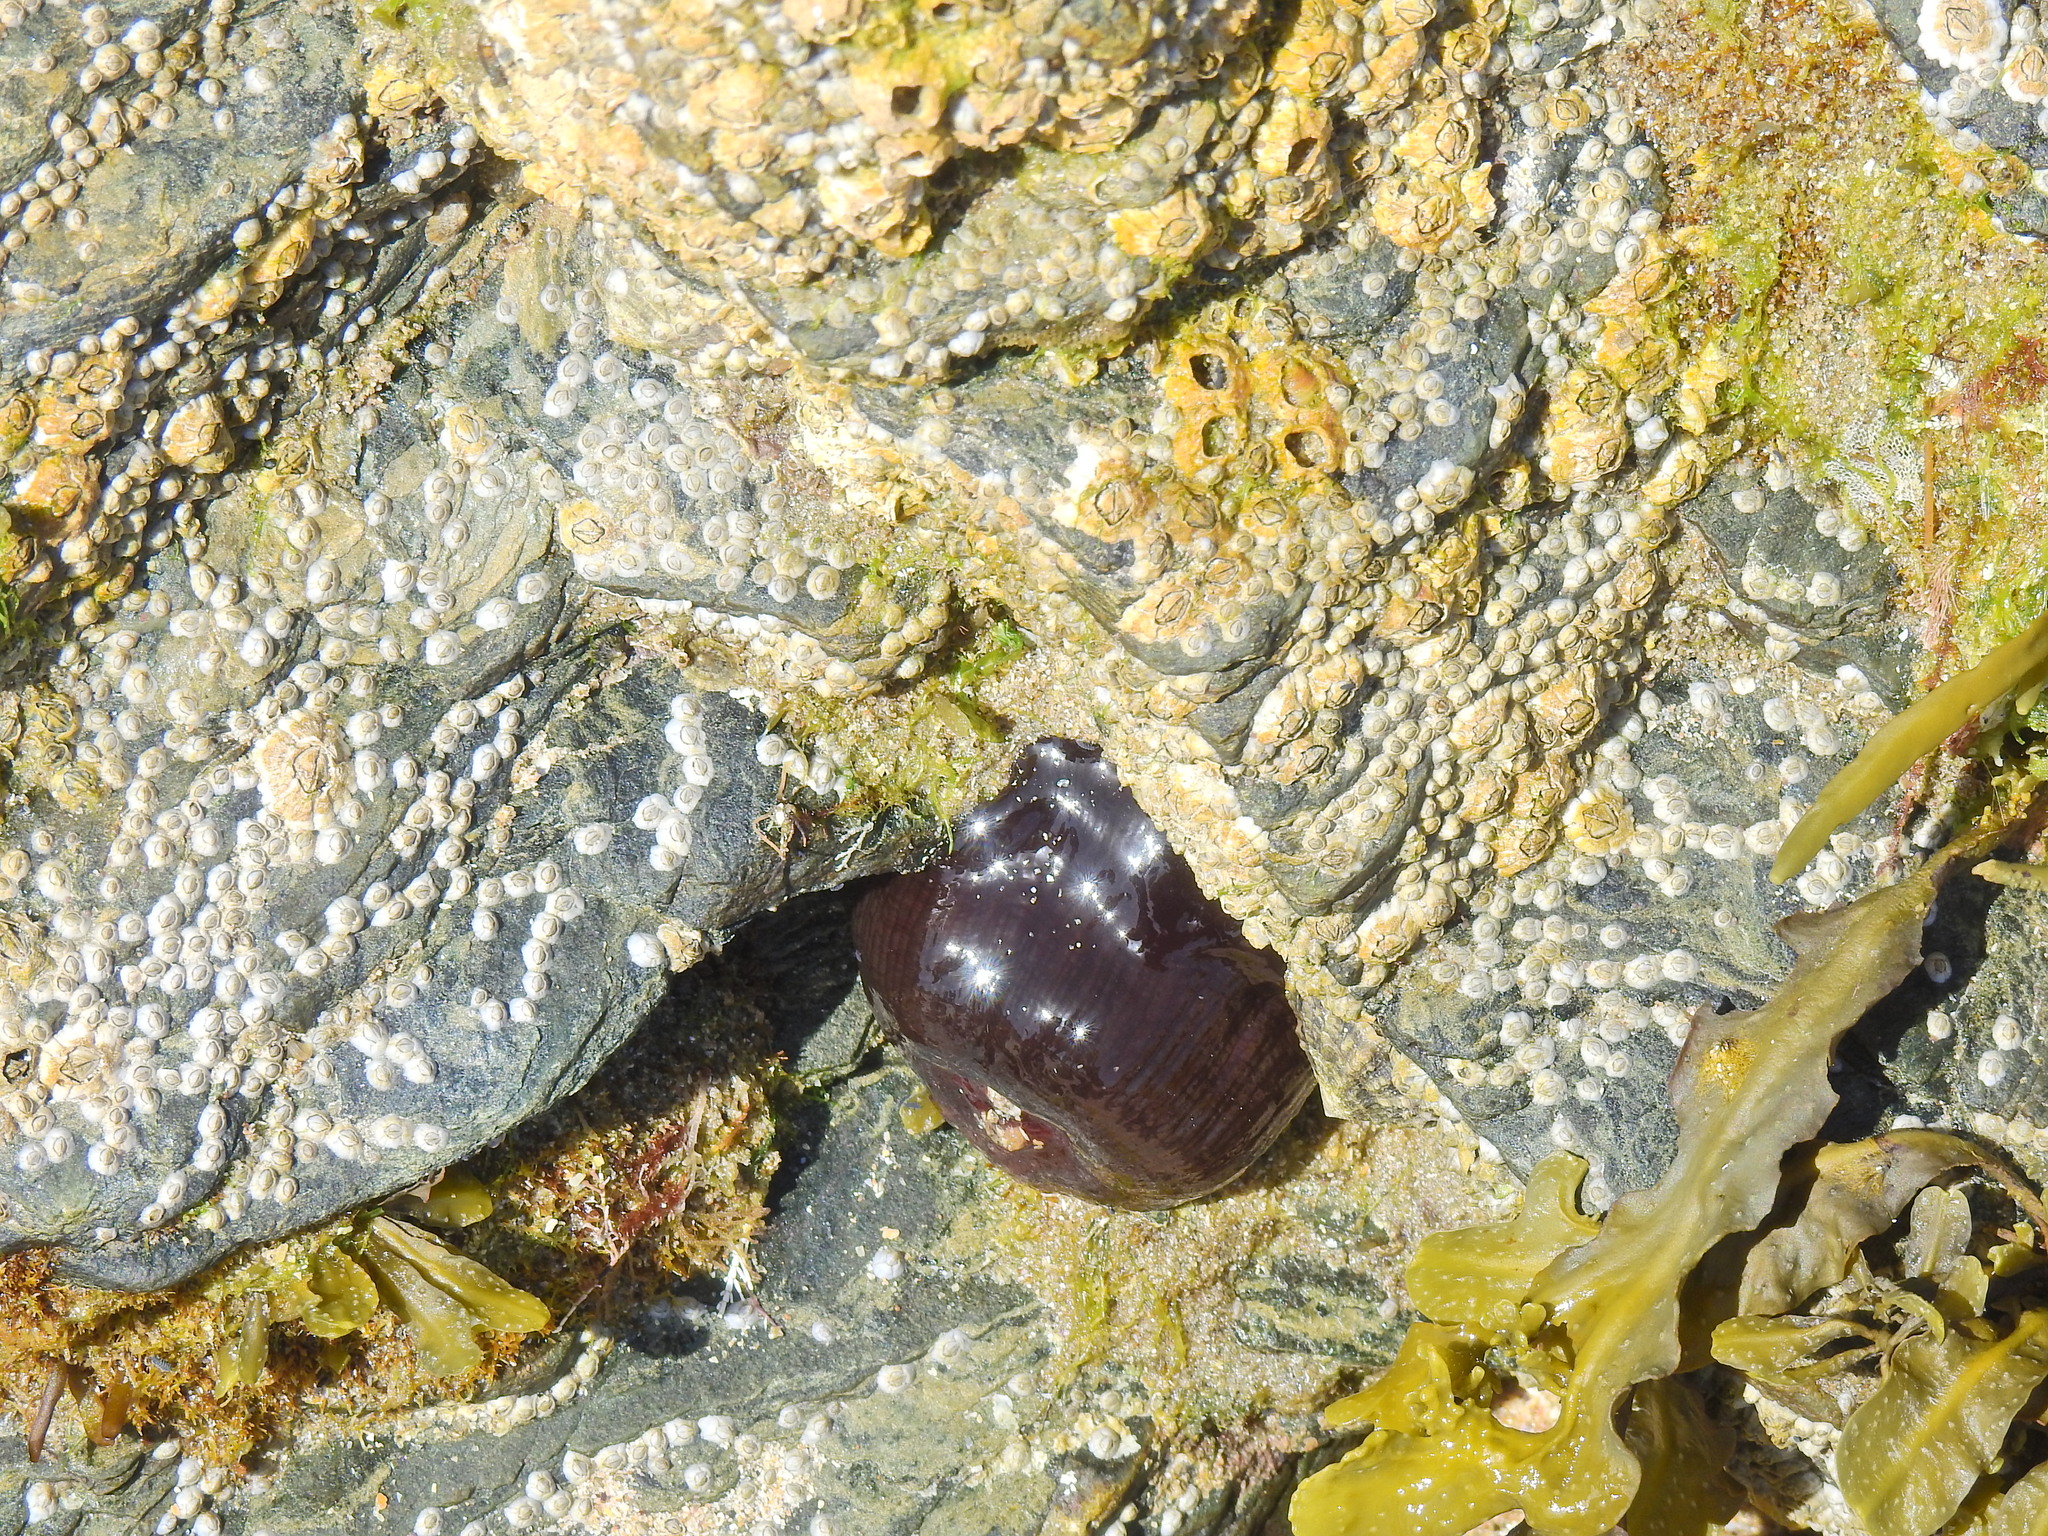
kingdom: Animalia
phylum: Cnidaria
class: Anthozoa
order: Actiniaria
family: Actiniidae
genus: Actinia
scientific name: Actinia equina
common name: Beadlet anemone
